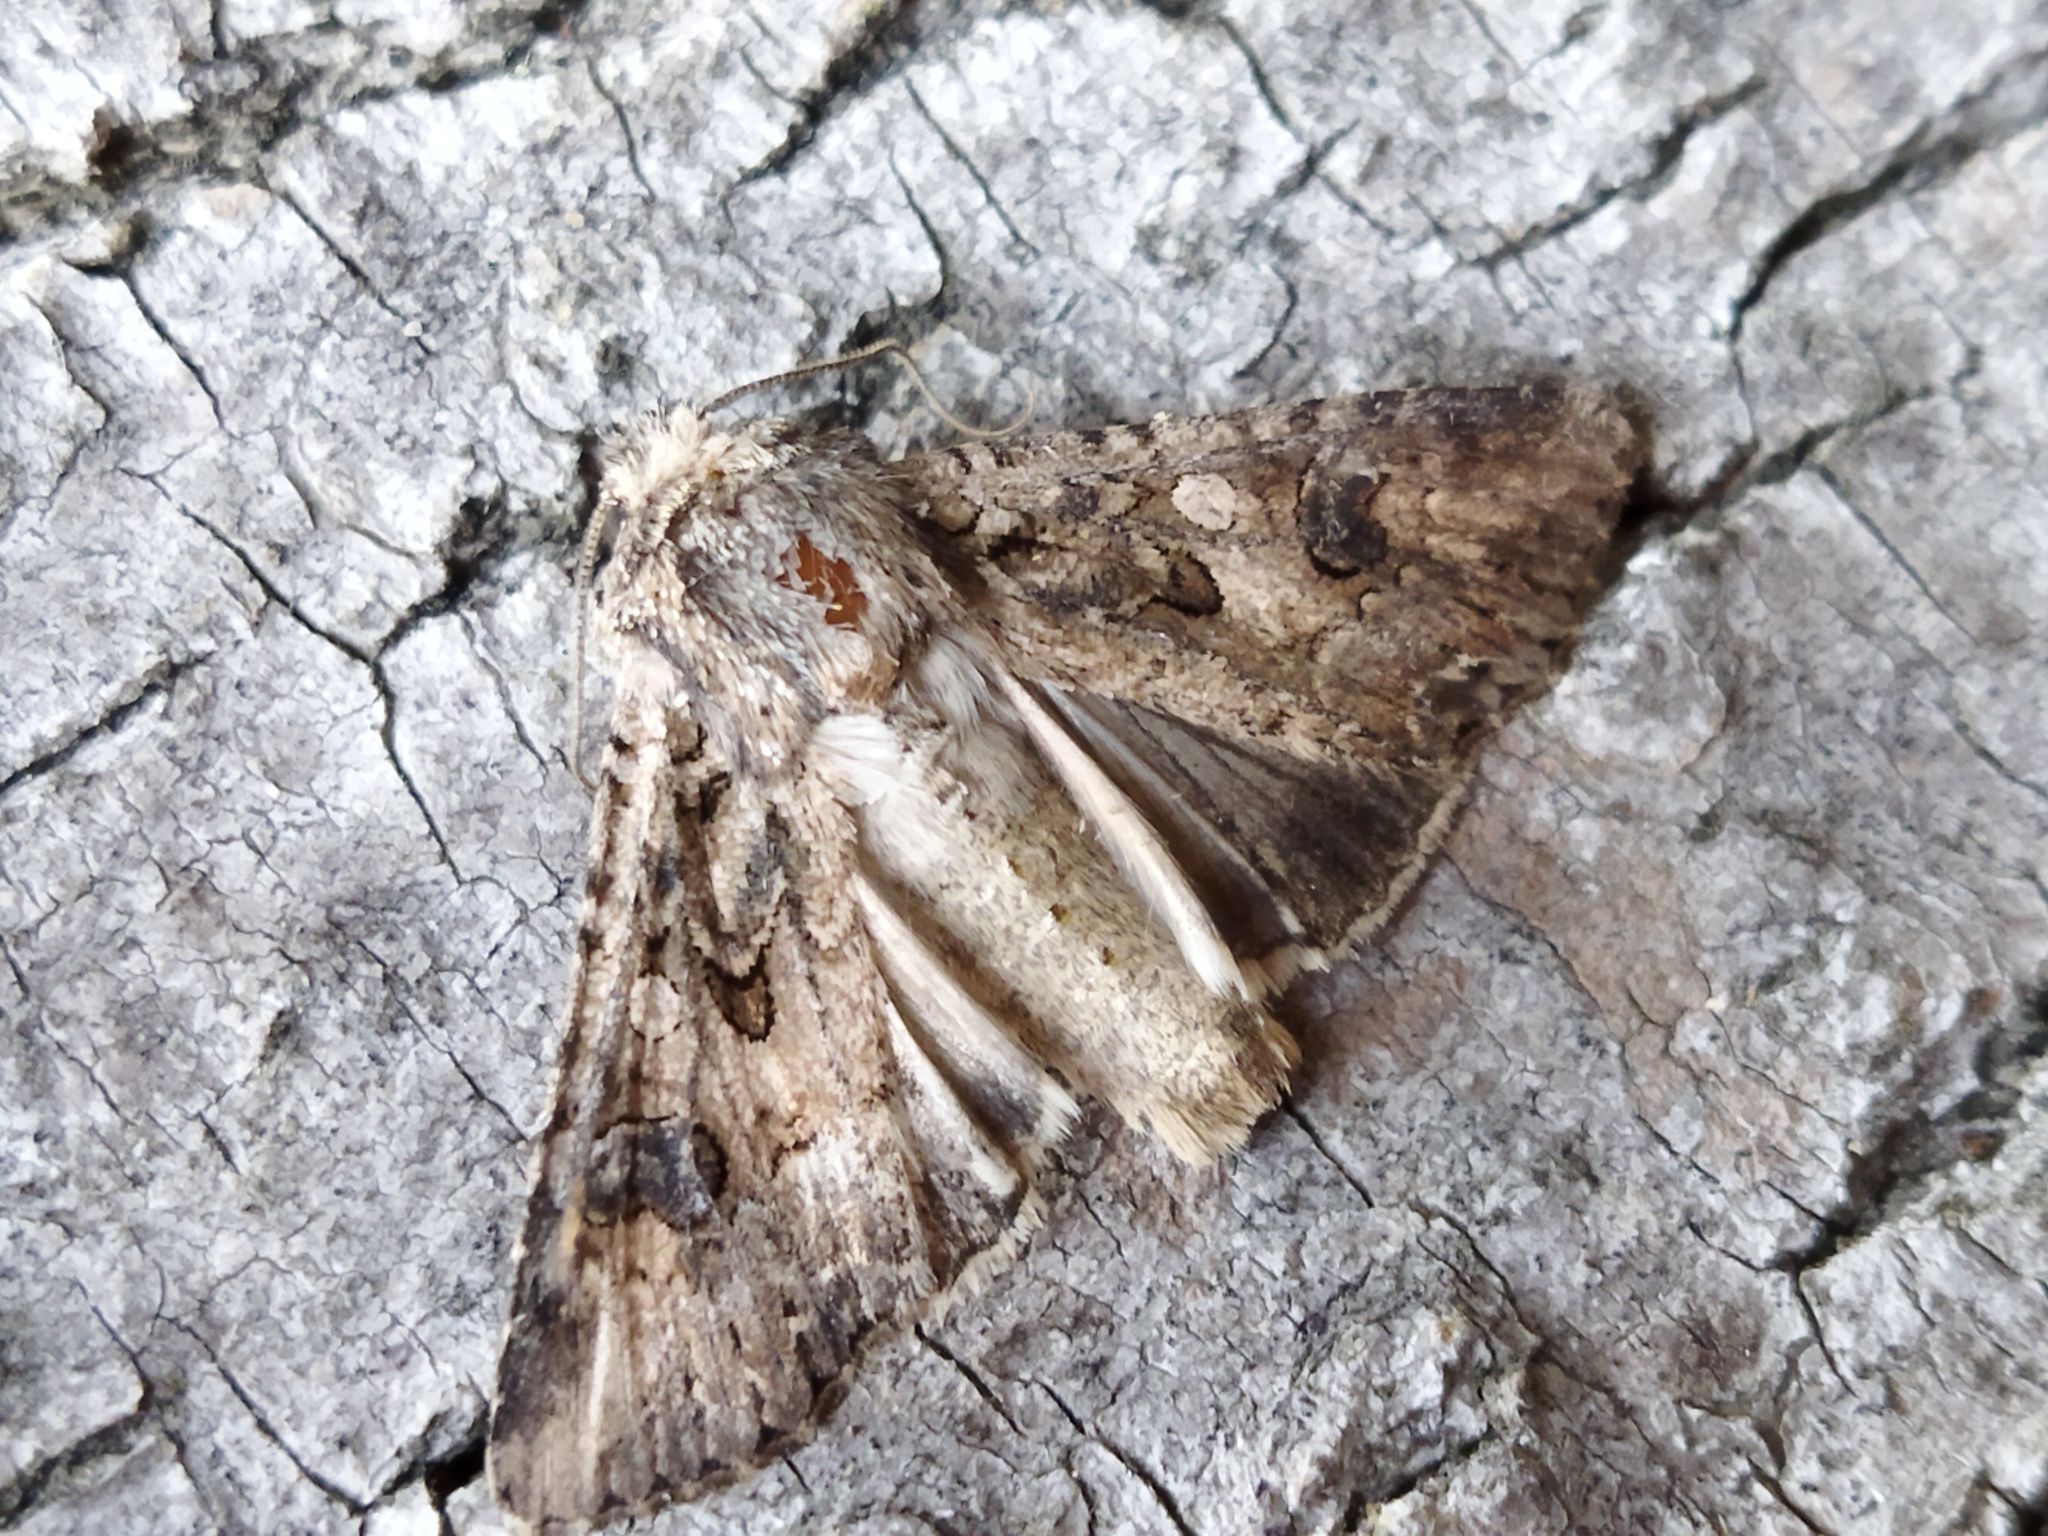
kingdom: Animalia
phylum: Arthropoda
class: Insecta
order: Lepidoptera
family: Noctuidae
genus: Anarta
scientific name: Anarta trifolii
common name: Clover cutworm moth
